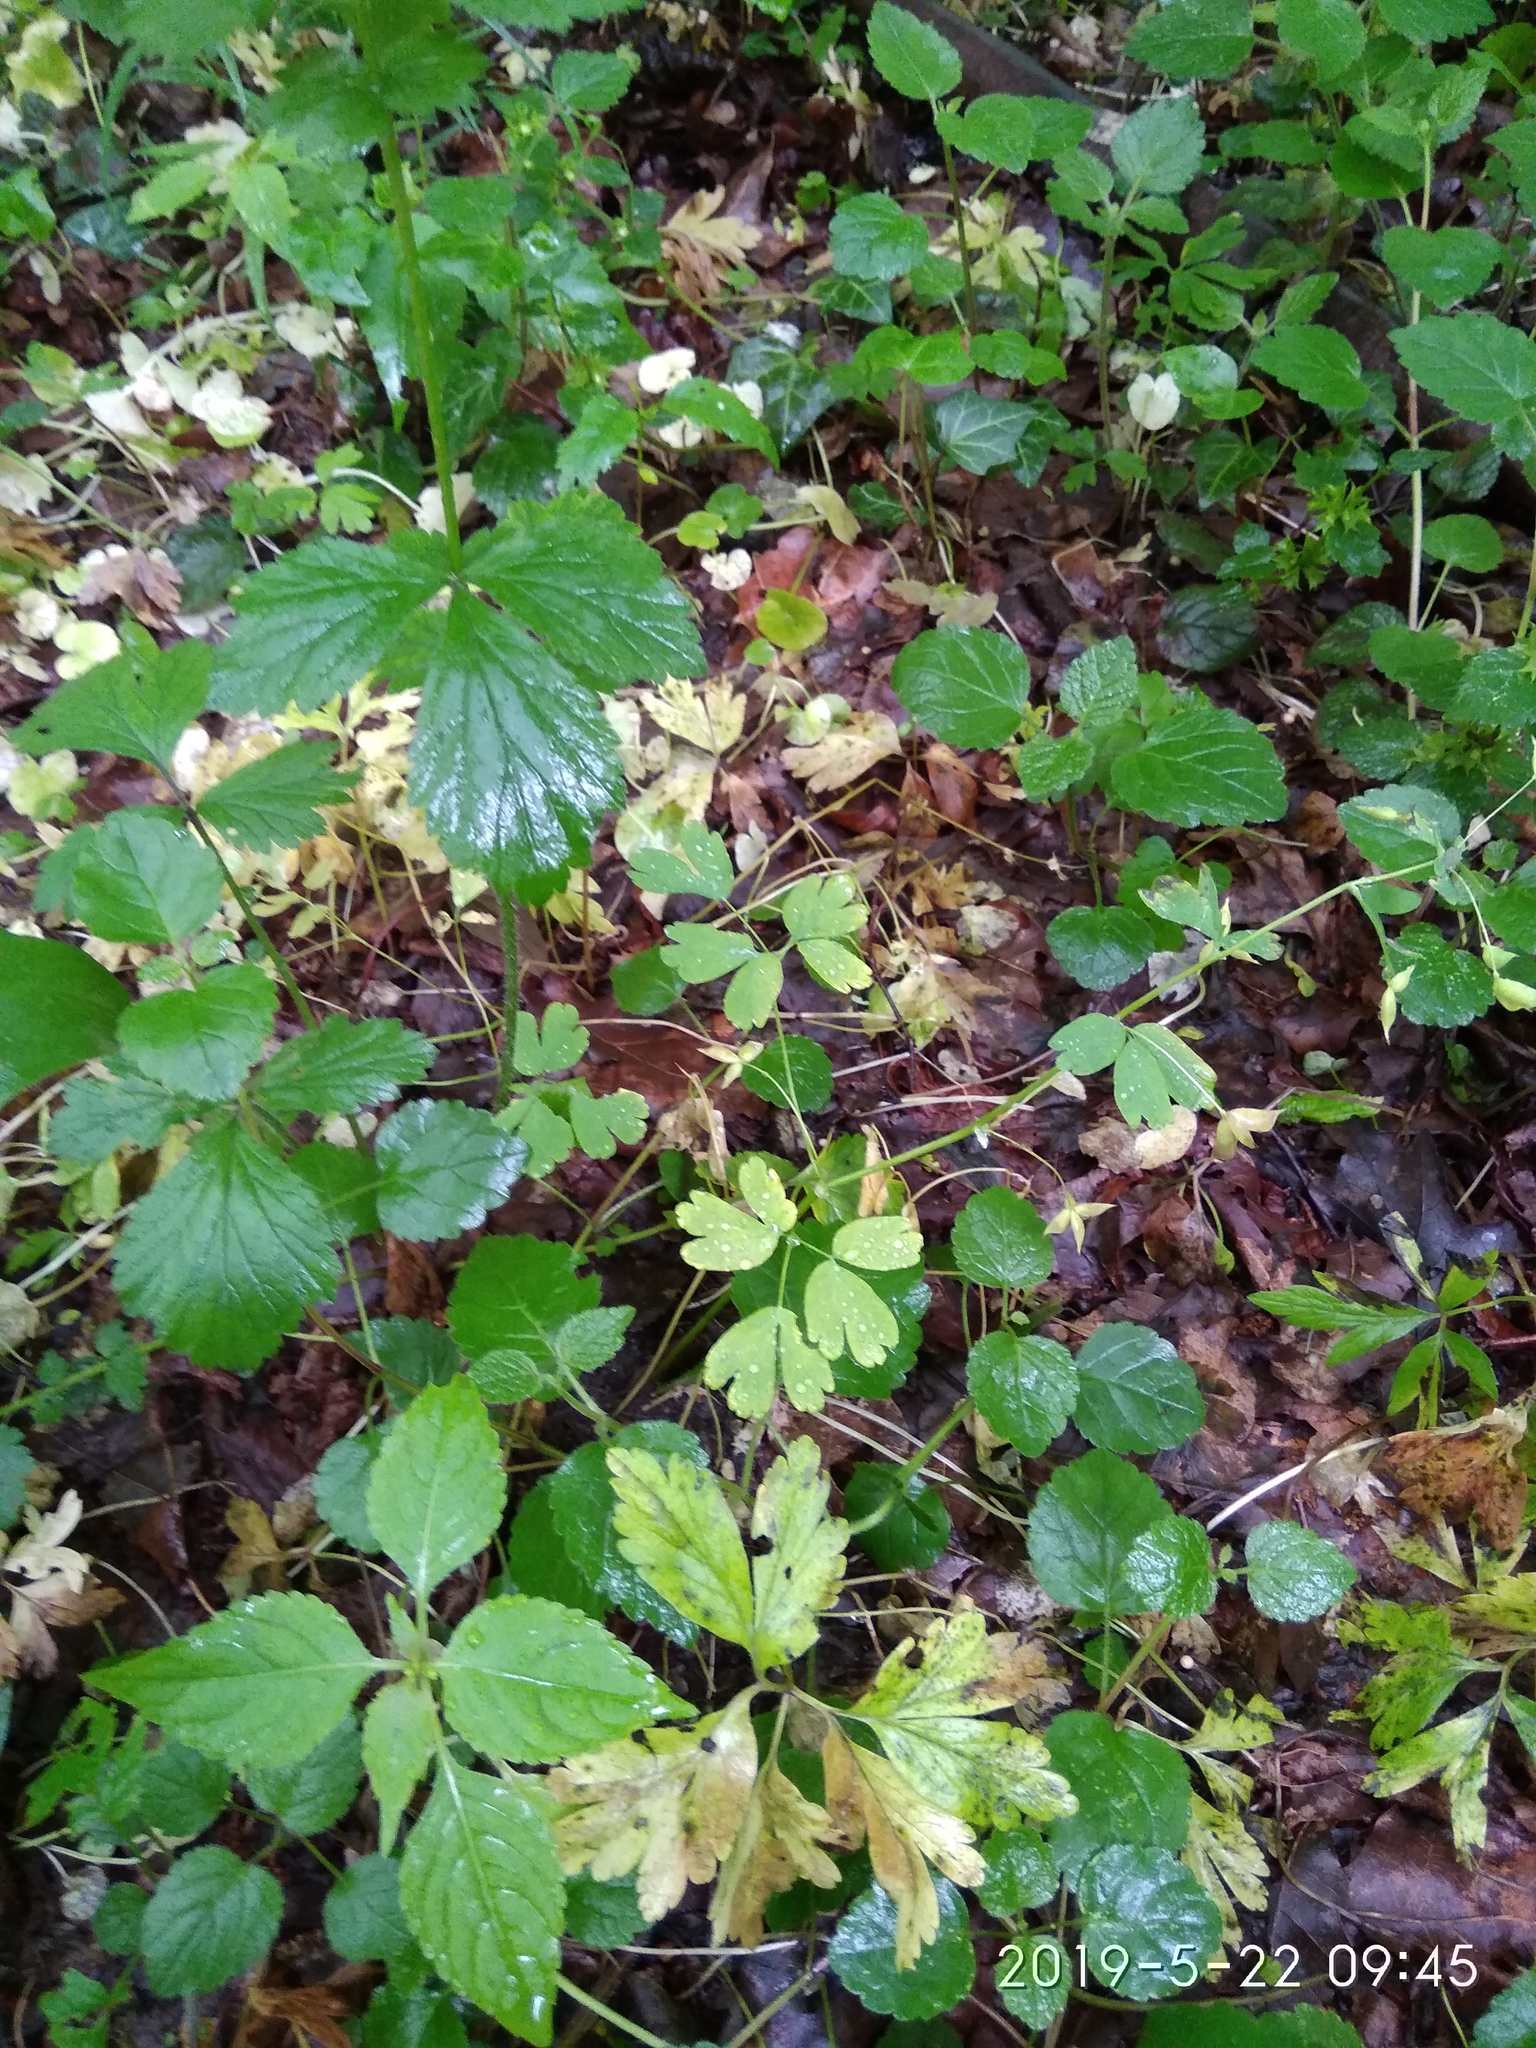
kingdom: Plantae
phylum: Tracheophyta
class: Magnoliopsida
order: Ranunculales
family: Ranunculaceae
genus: Isopyrum
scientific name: Isopyrum thalictroides
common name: Isopyrum
